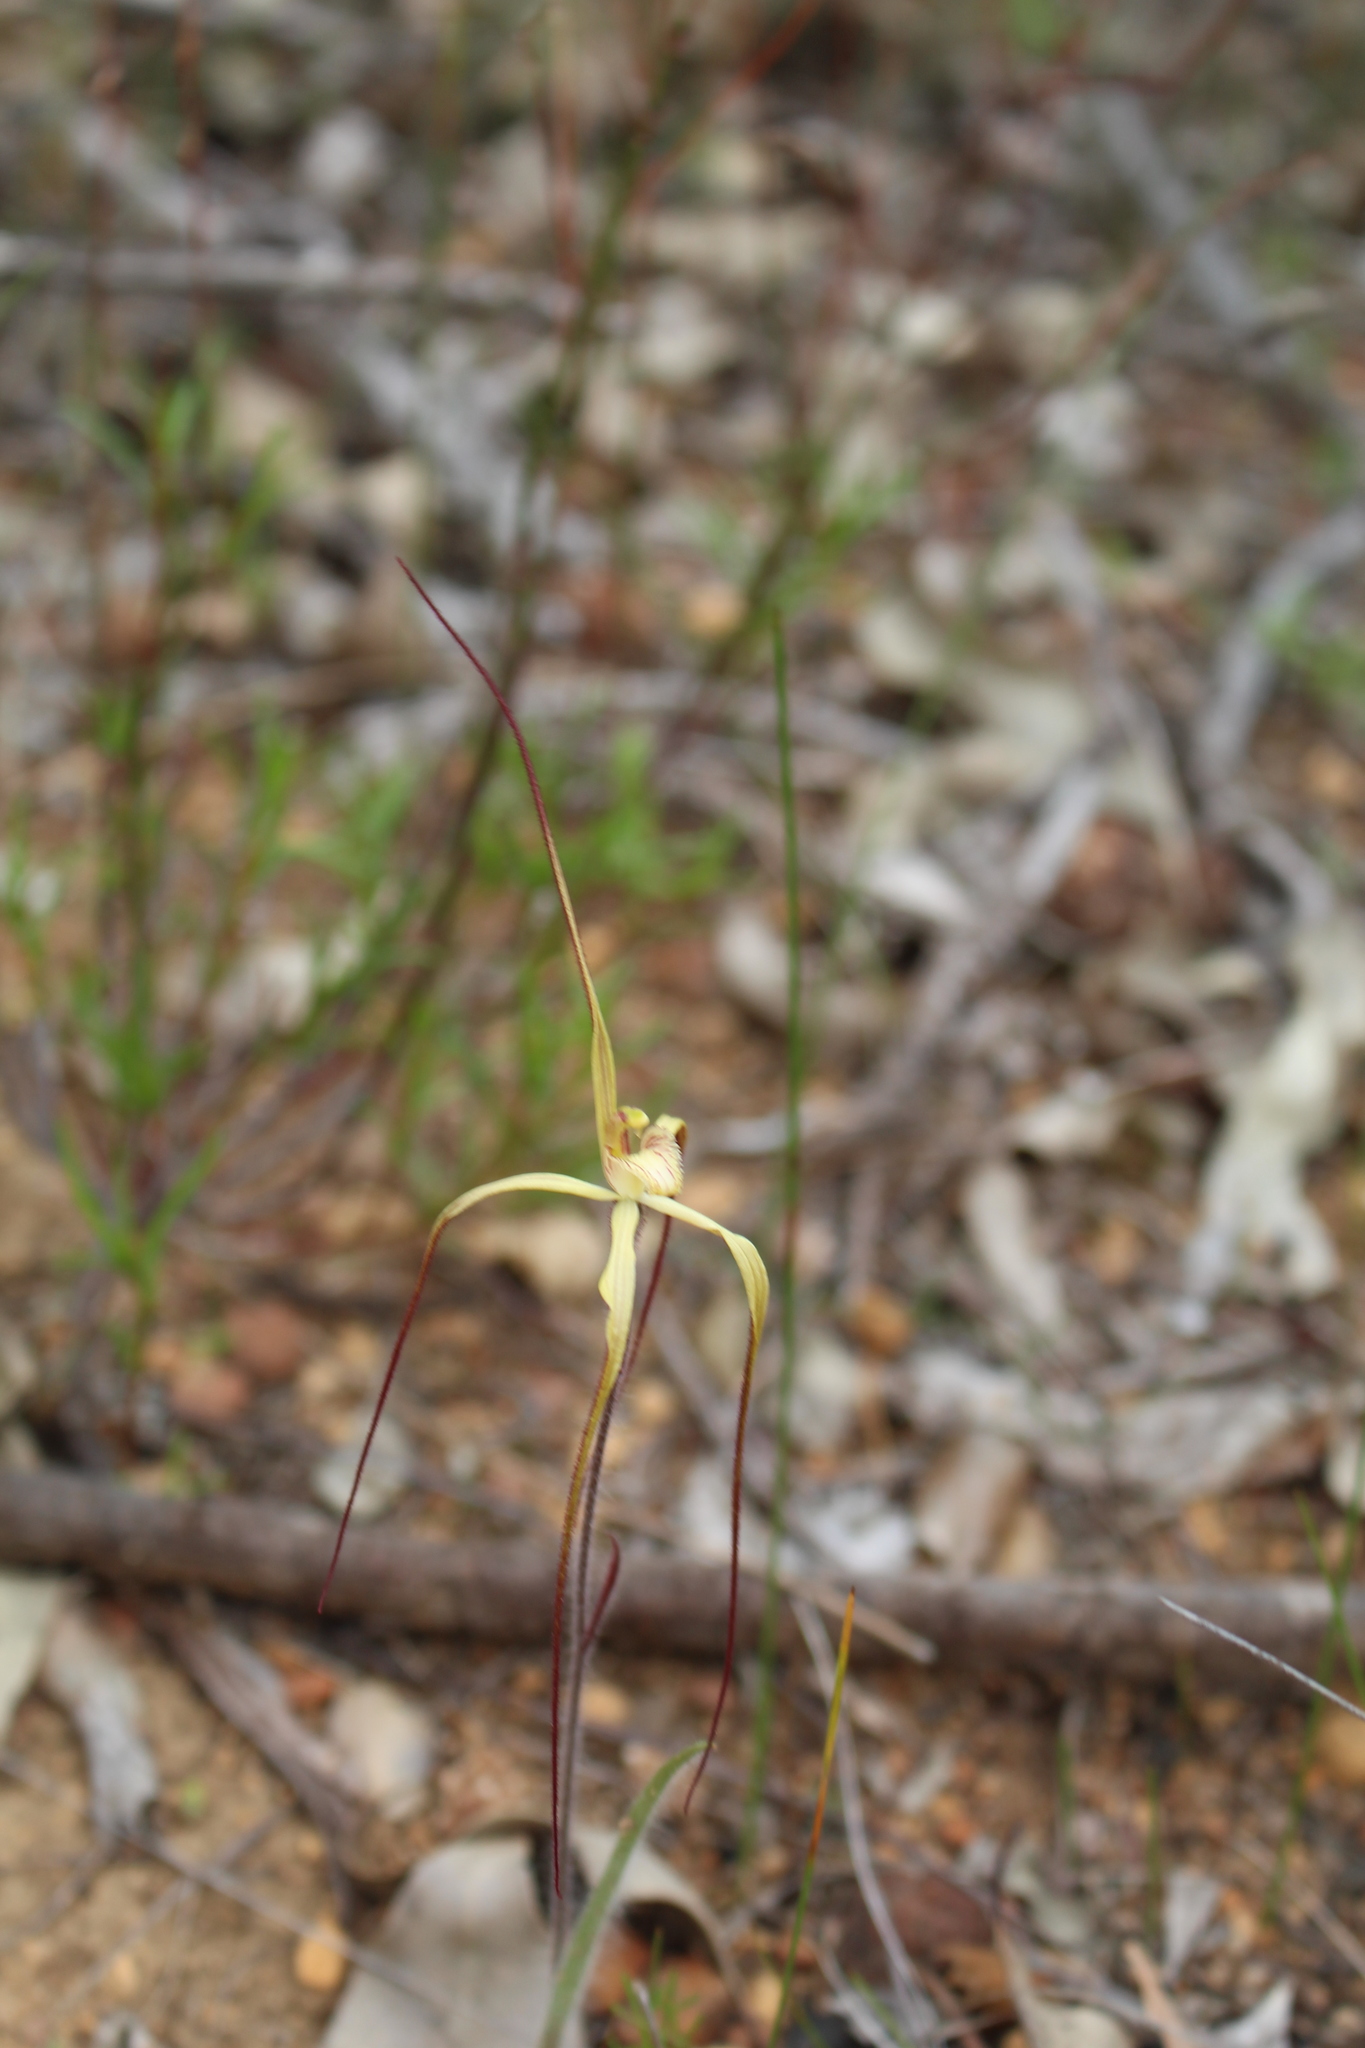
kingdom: Plantae
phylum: Tracheophyta
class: Liliopsida
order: Asparagales
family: Orchidaceae
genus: Caladenia
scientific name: Caladenia xantha
